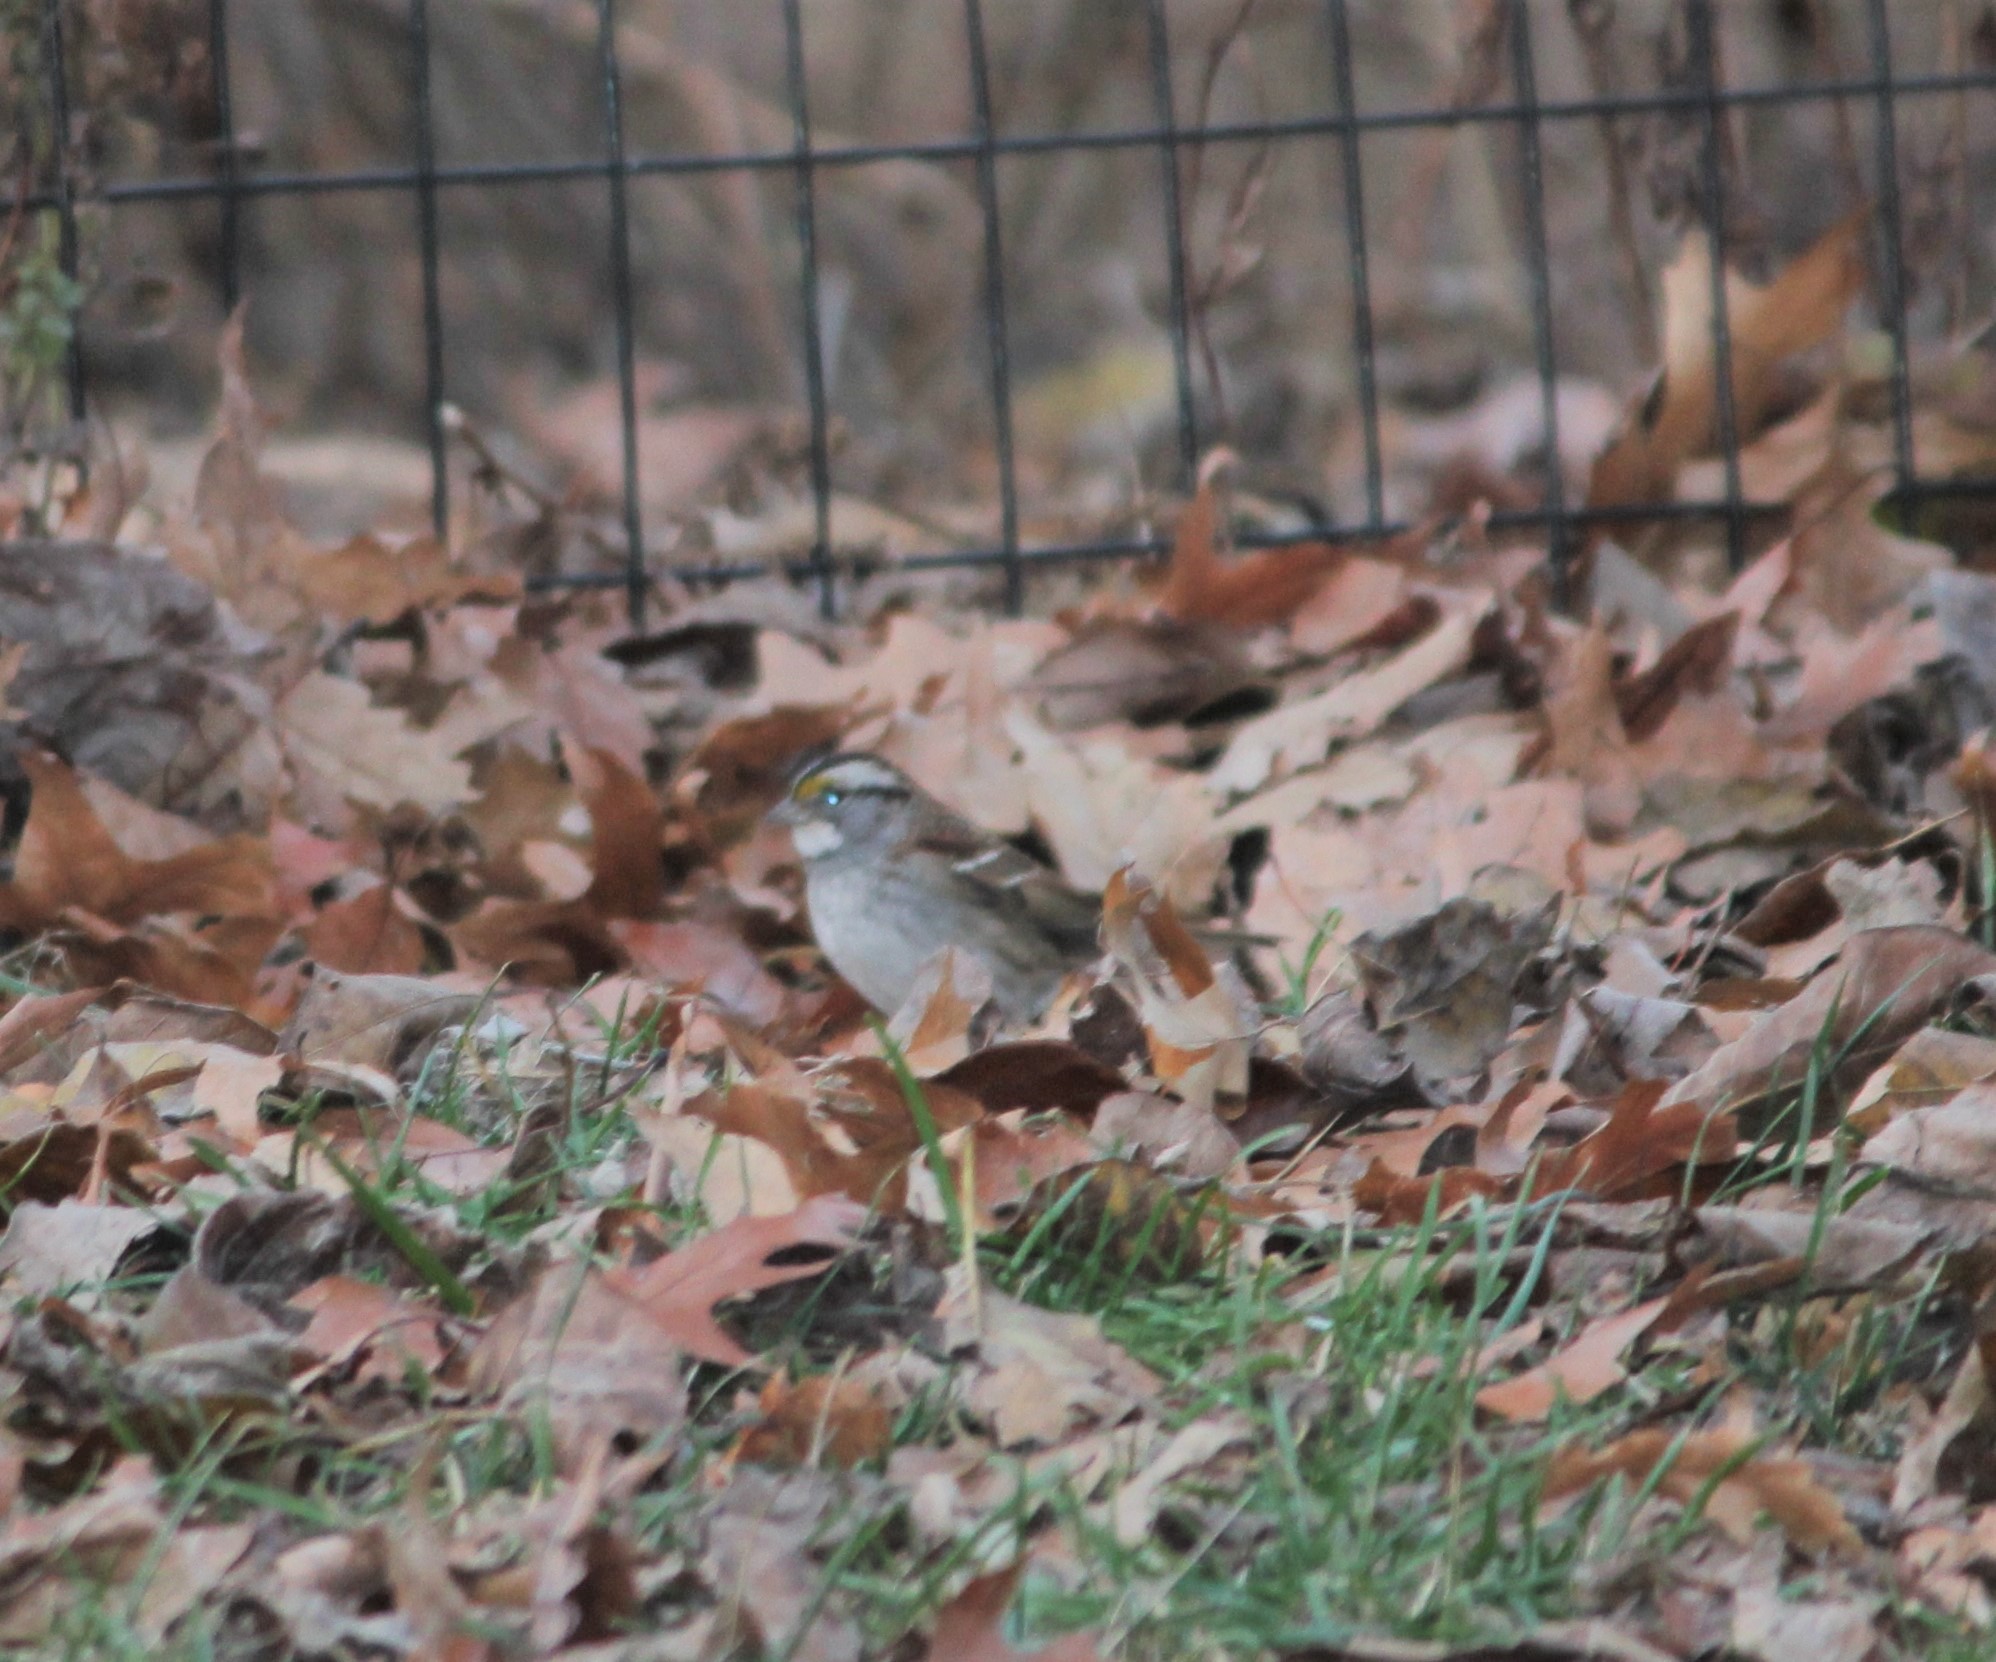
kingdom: Animalia
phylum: Chordata
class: Aves
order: Passeriformes
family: Passerellidae
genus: Zonotrichia
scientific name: Zonotrichia albicollis
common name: White-throated sparrow
